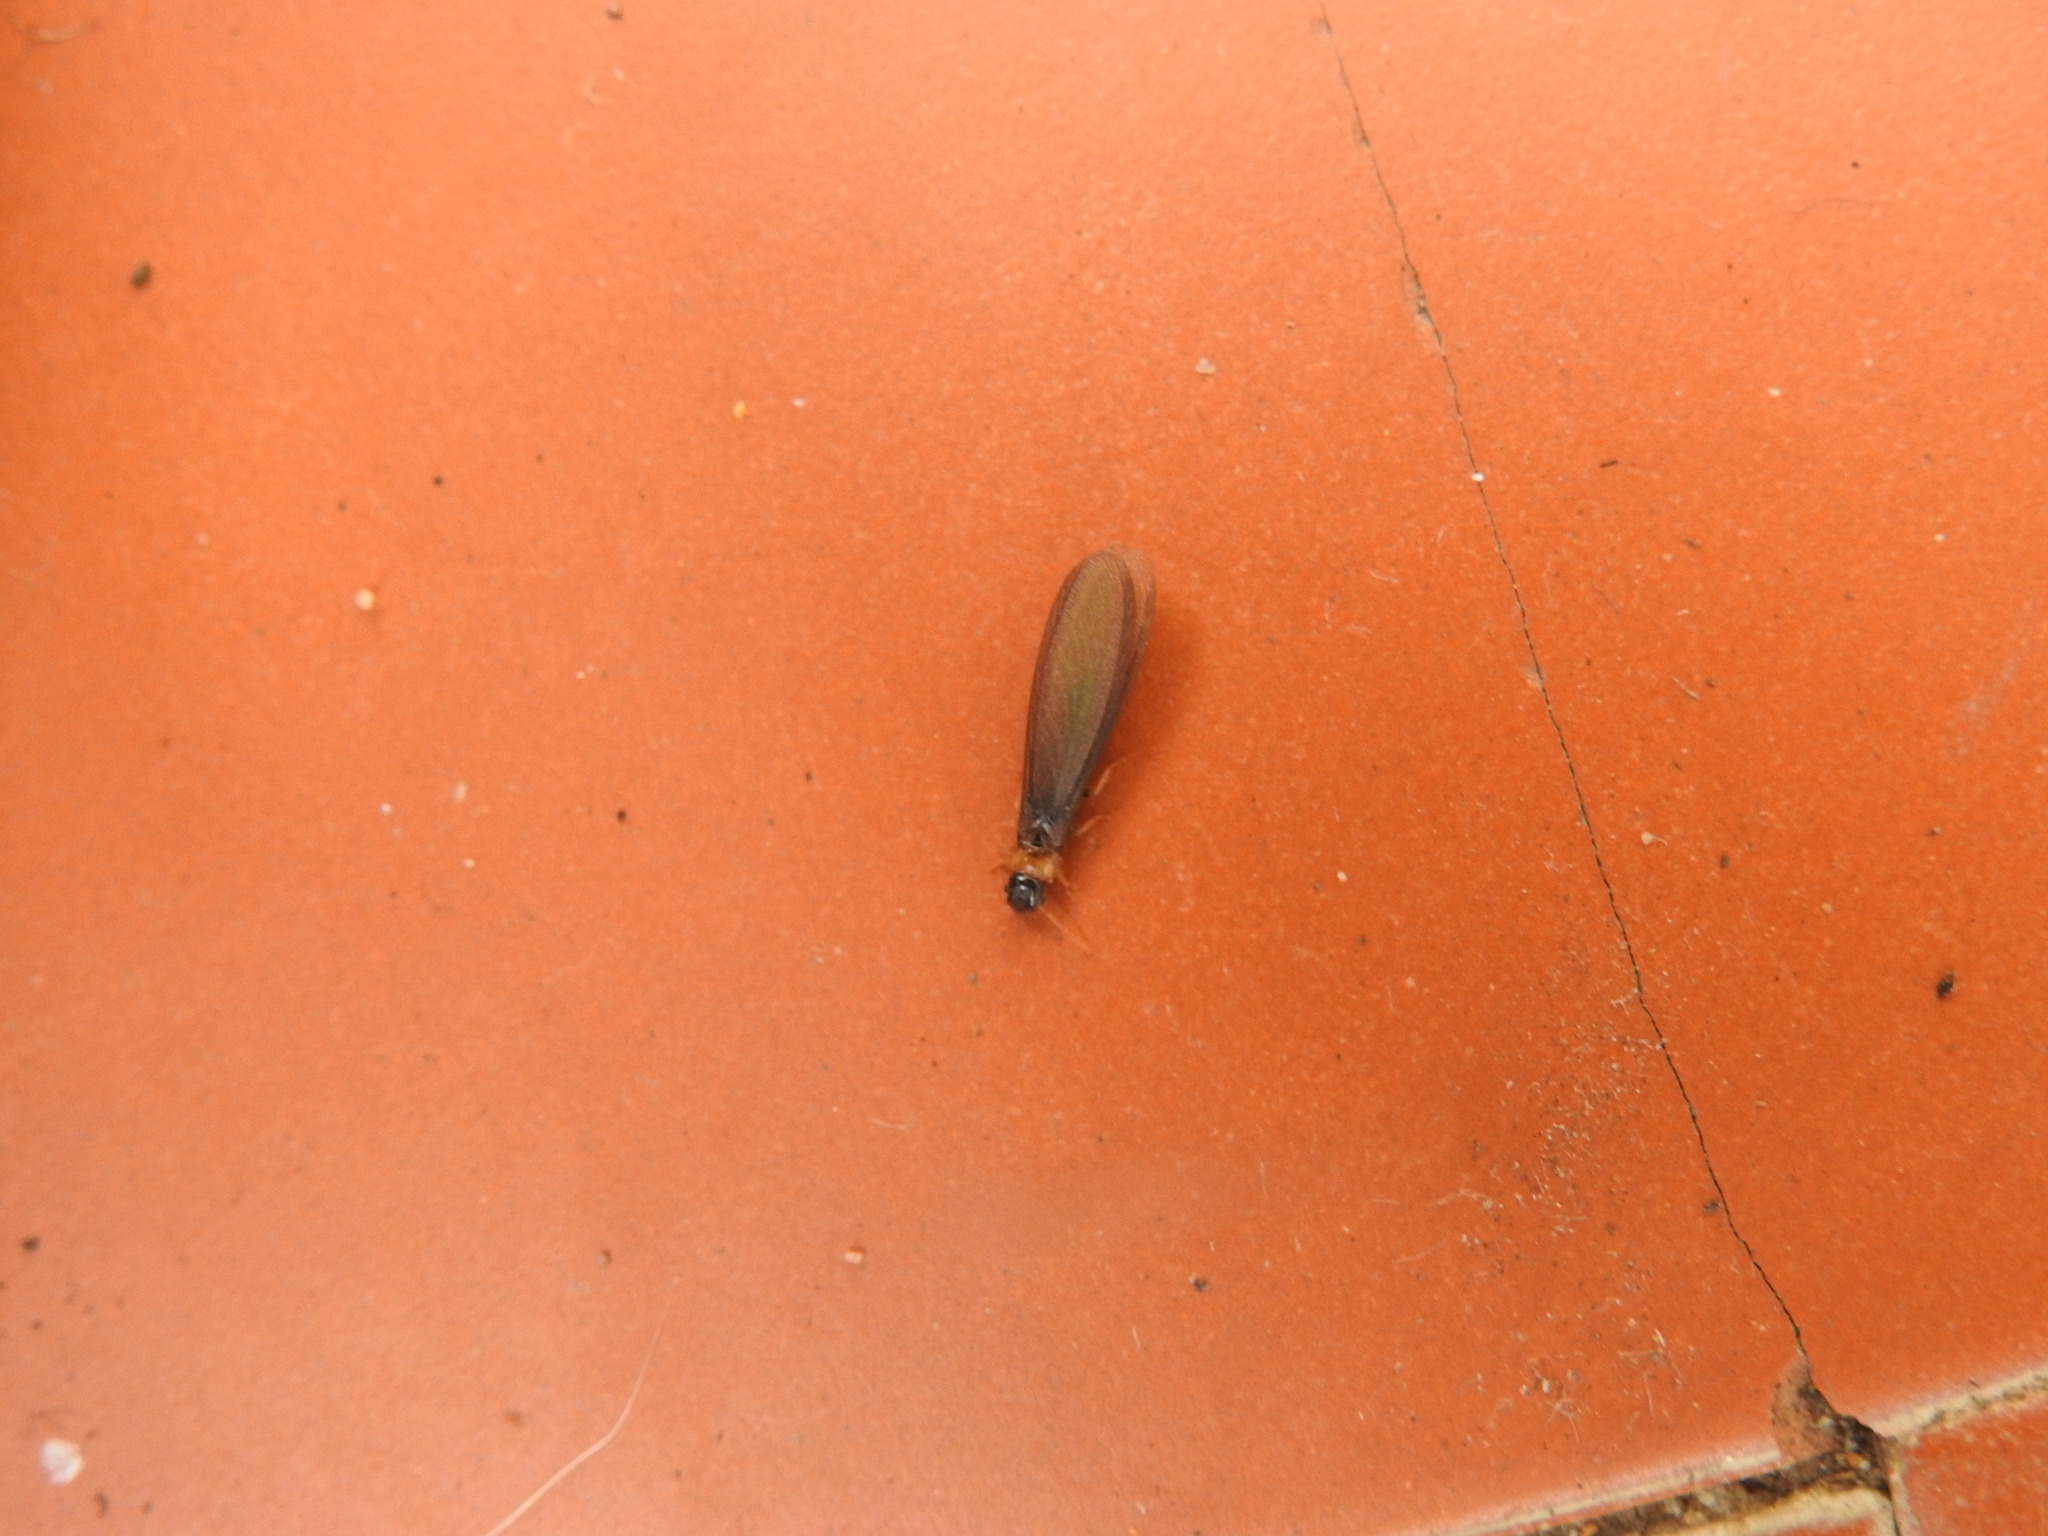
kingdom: Animalia
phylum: Arthropoda
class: Insecta
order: Blattodea
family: Kalotermitidae
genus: Kalotermes
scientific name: Kalotermes flavicollis
